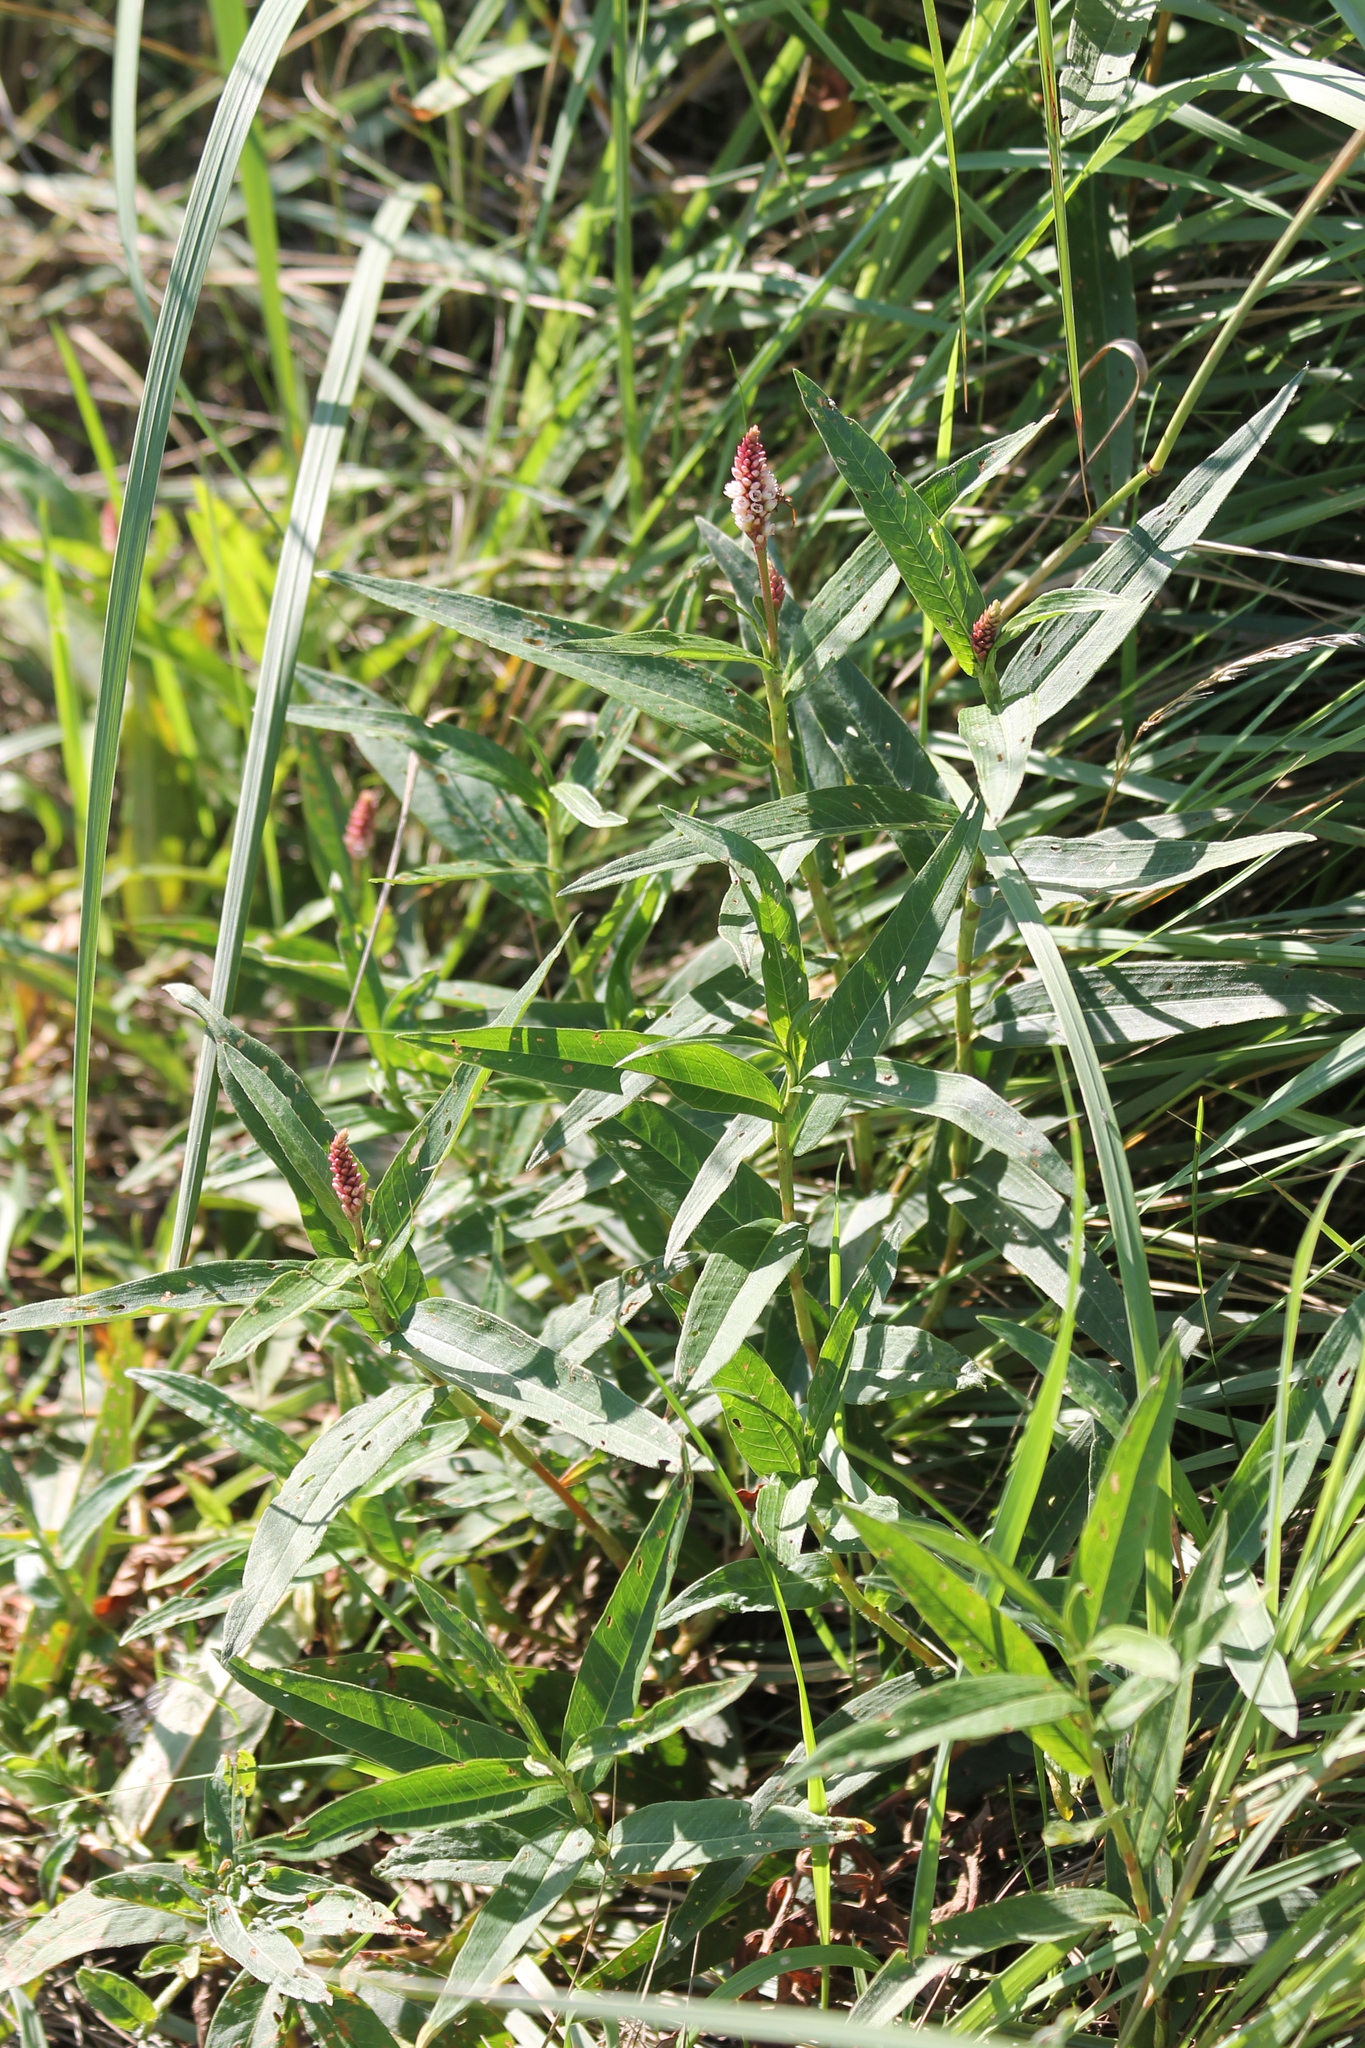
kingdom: Plantae
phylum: Tracheophyta
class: Magnoliopsida
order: Caryophyllales
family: Polygonaceae
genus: Persicaria
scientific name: Persicaria amphibia
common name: Amphibious bistort
